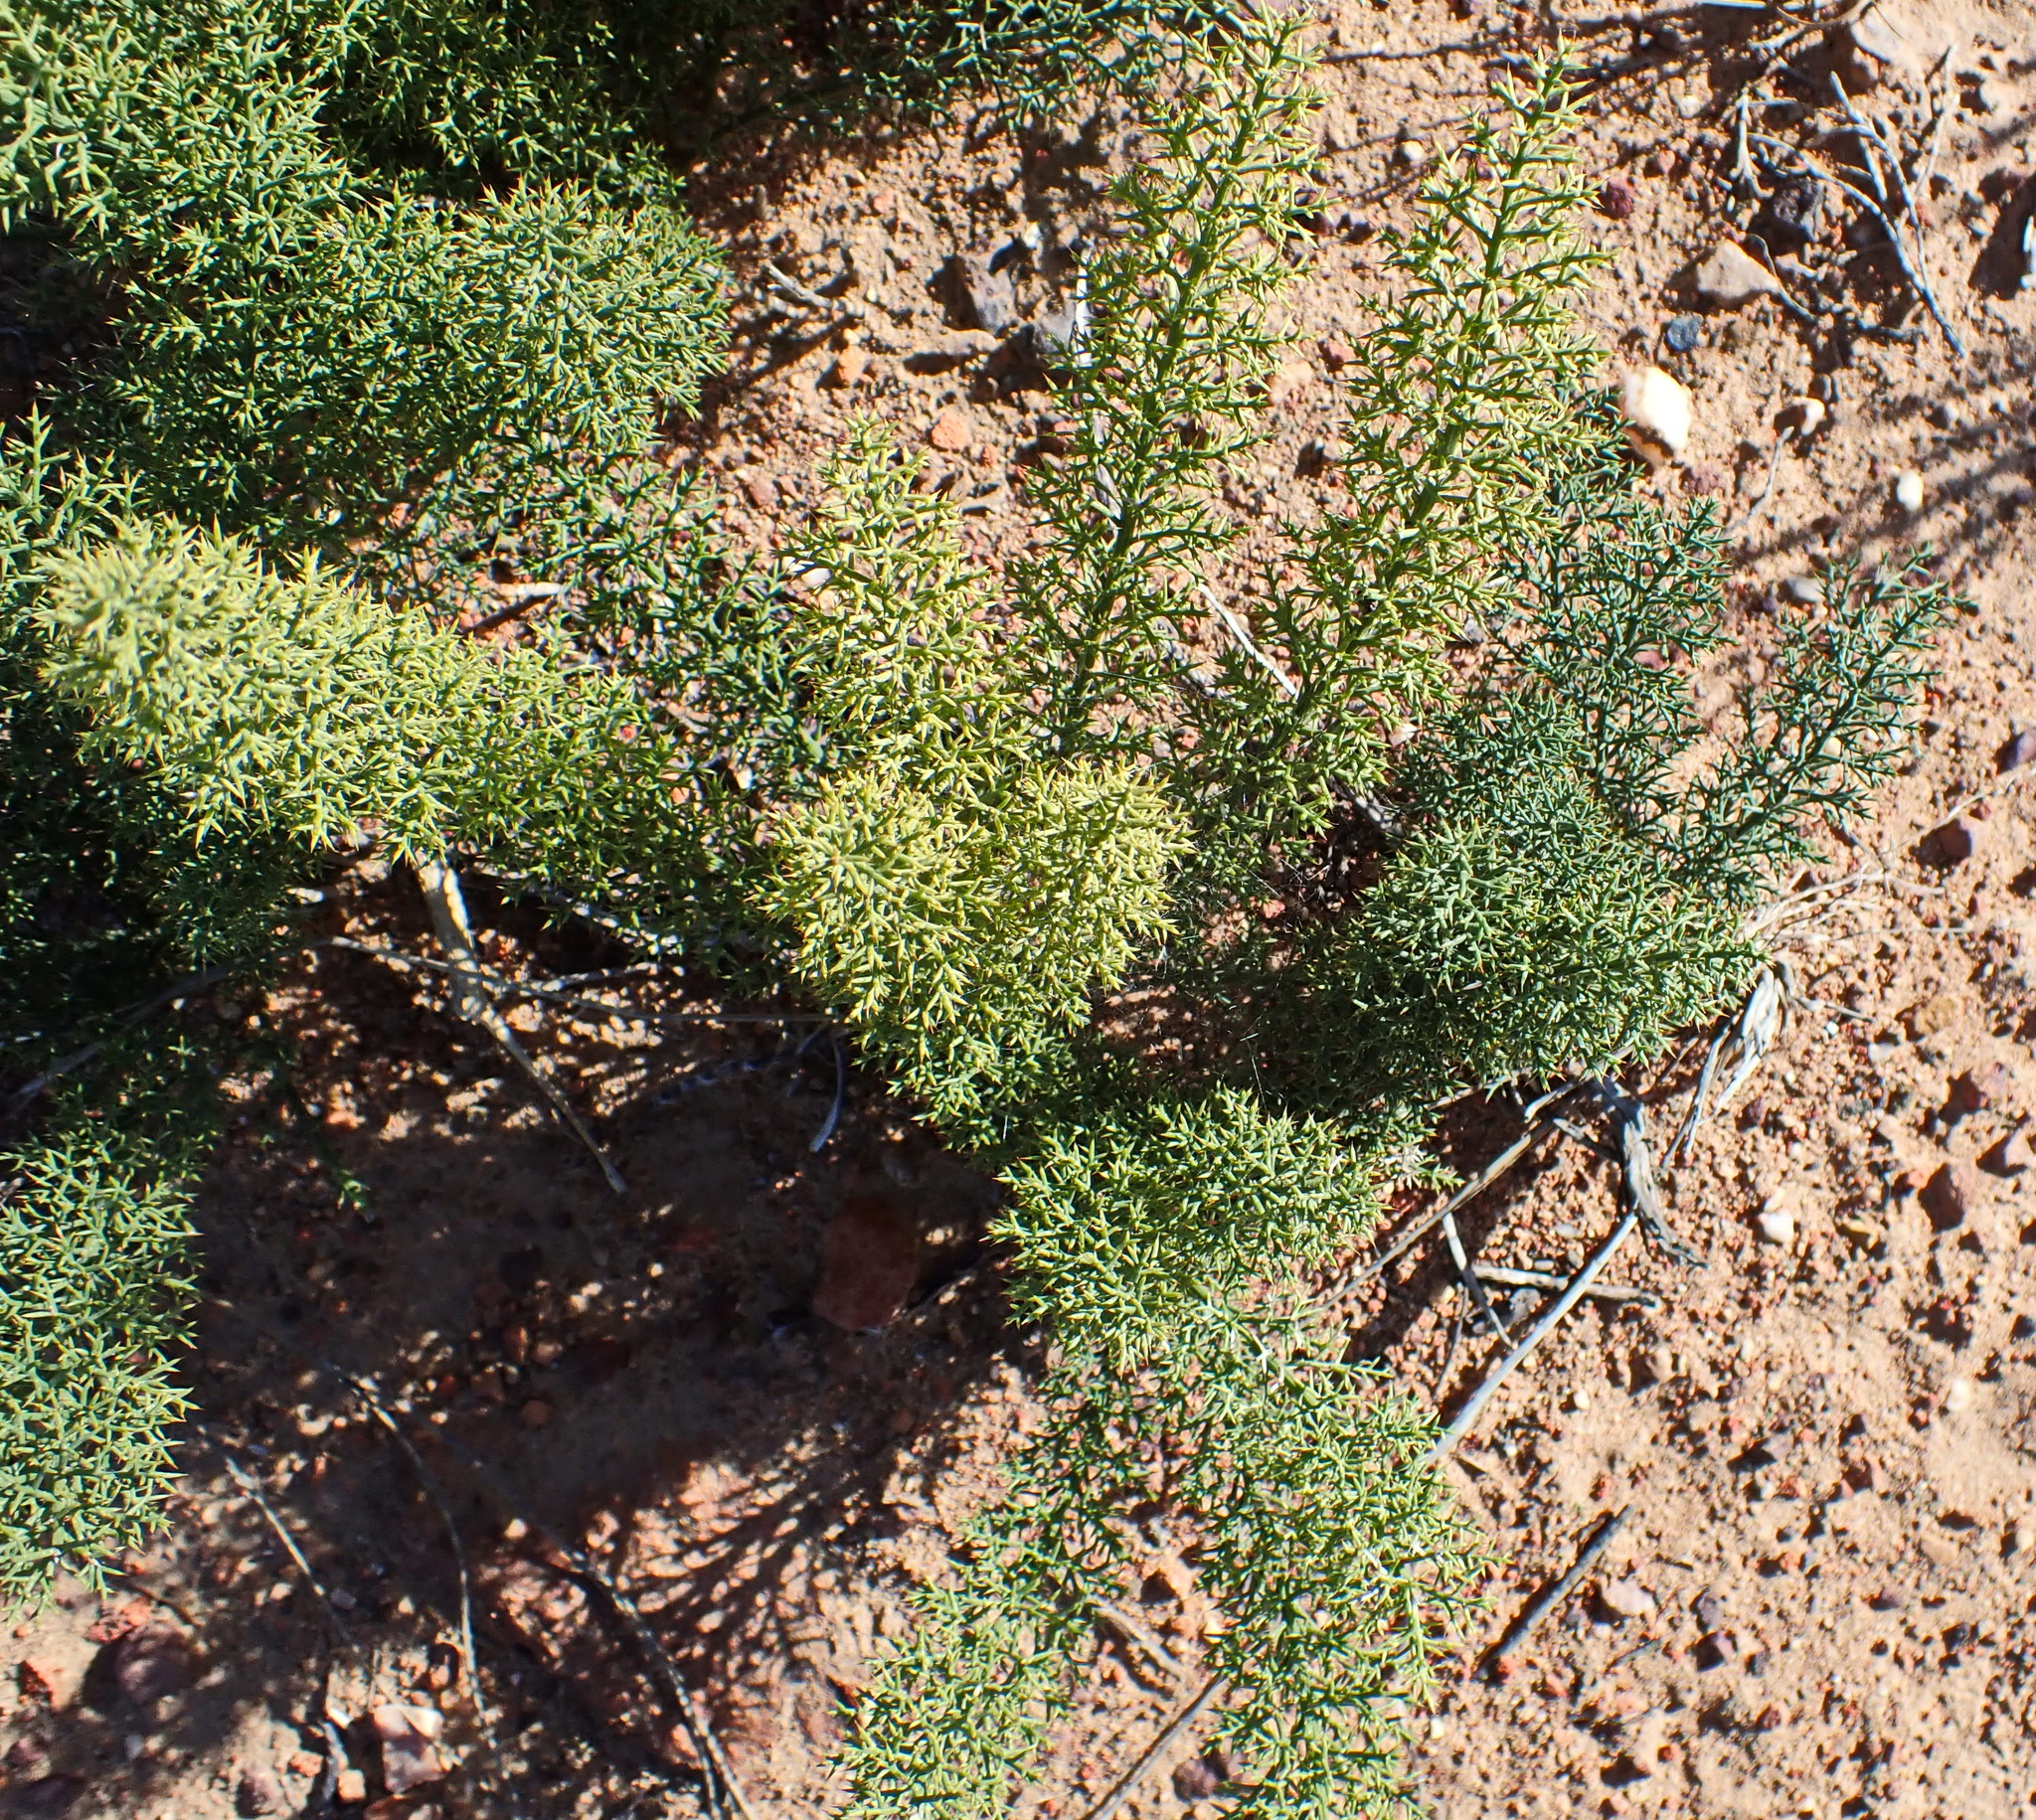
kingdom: Plantae
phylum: Tracheophyta
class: Liliopsida
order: Asparagales
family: Asparagaceae
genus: Asparagus
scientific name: Asparagus oliveri
